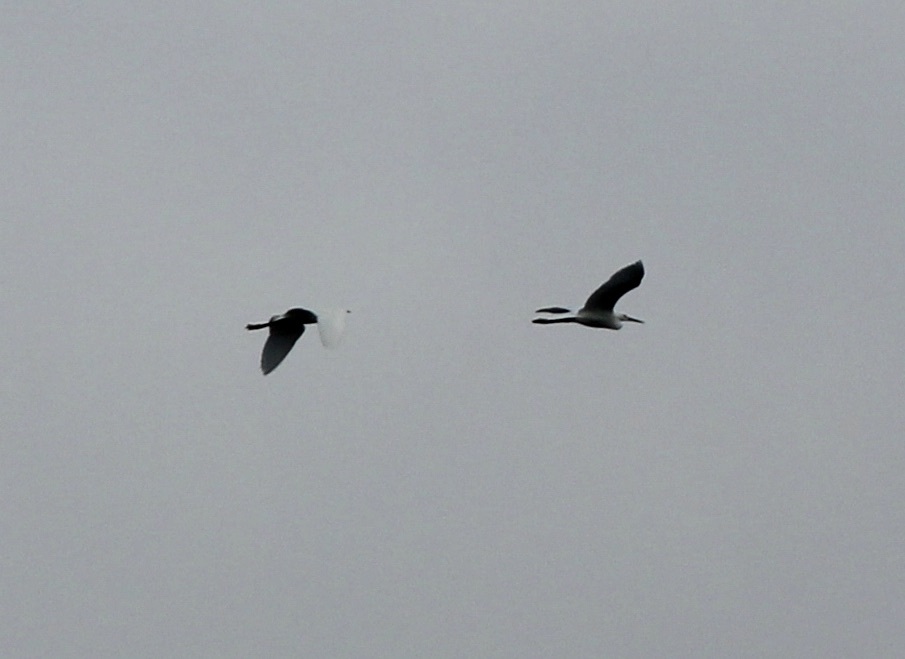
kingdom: Animalia
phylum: Chordata
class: Aves
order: Pelecaniformes
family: Ardeidae
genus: Ardea
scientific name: Ardea alba
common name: Great egret
